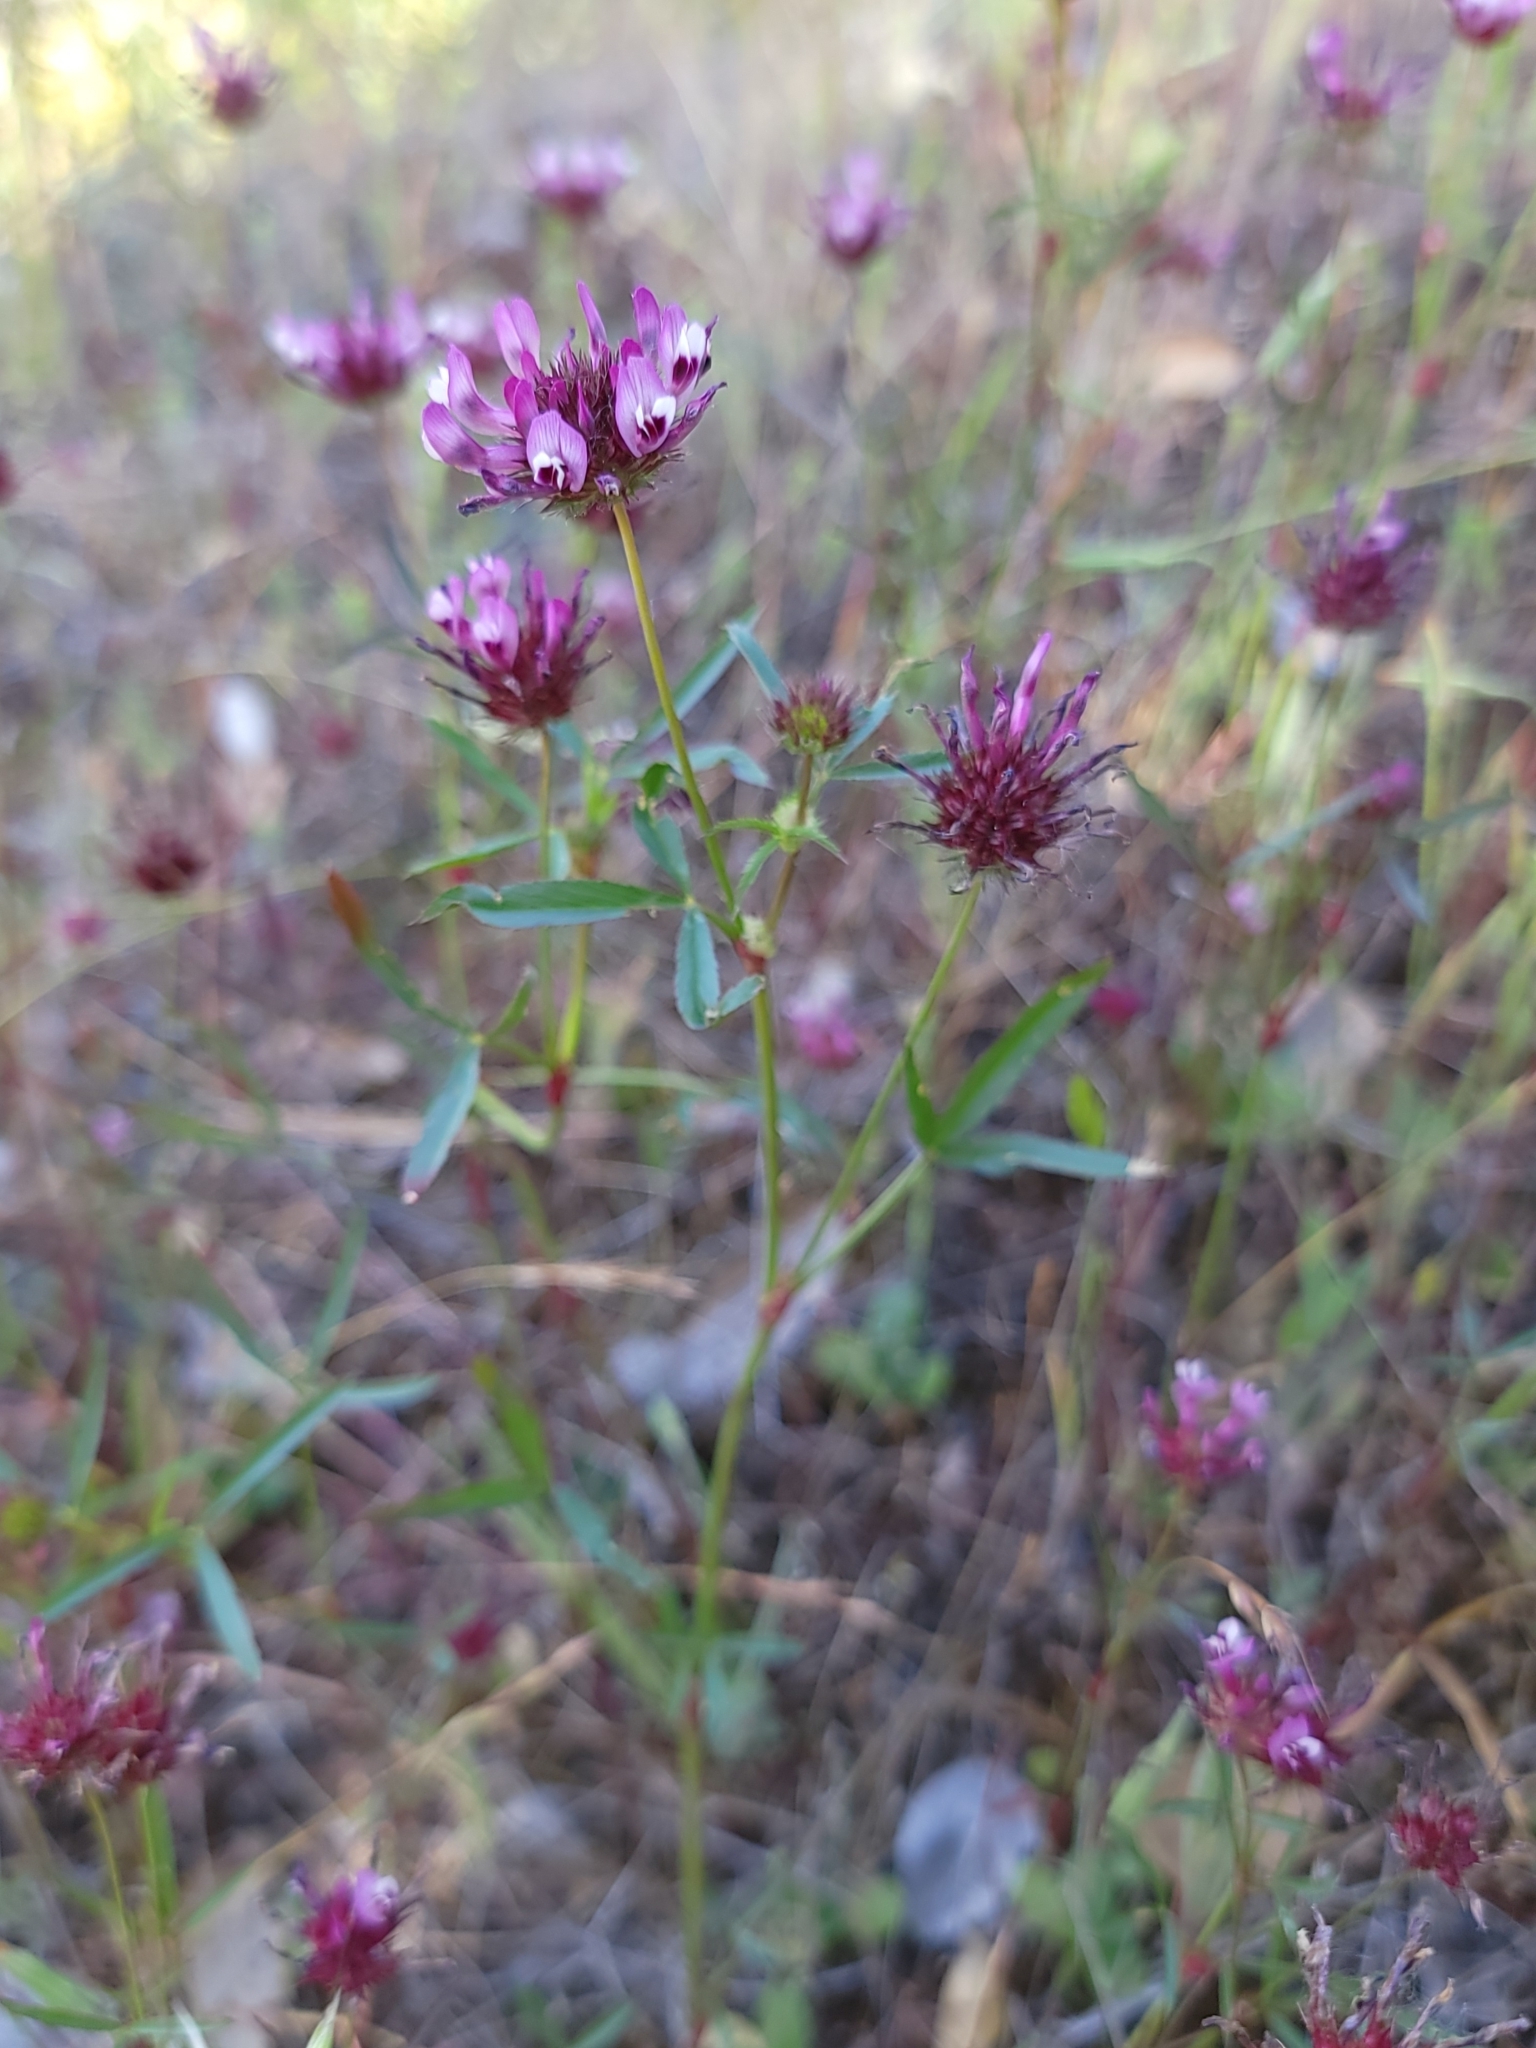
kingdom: Plantae
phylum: Tracheophyta
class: Magnoliopsida
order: Fabales
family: Fabaceae
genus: Trifolium
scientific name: Trifolium willdenovii
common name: Tomcat clover
